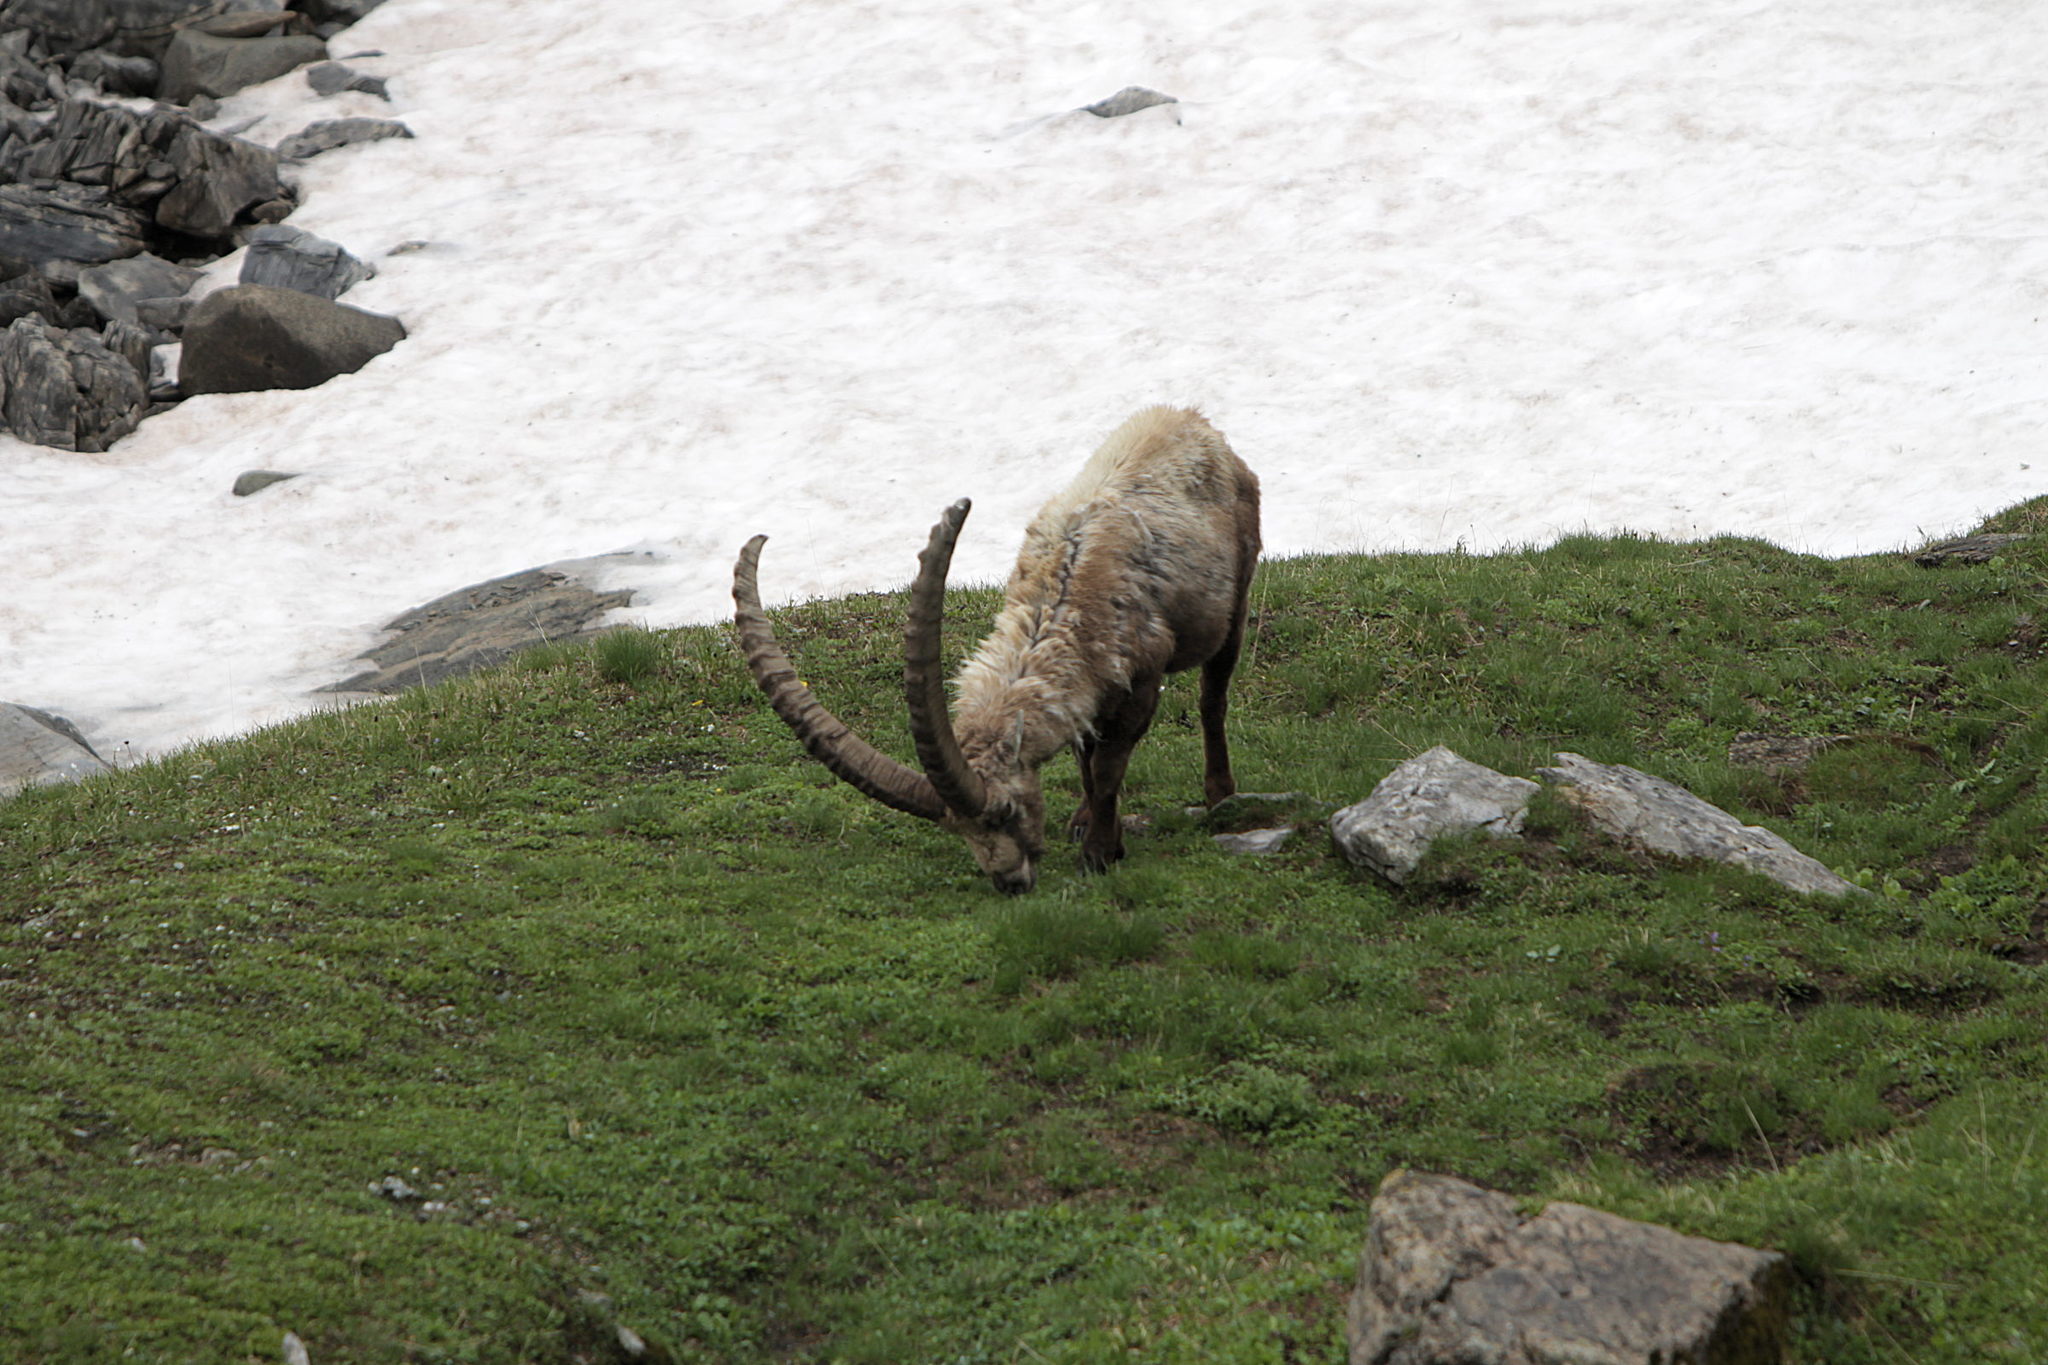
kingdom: Animalia
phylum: Chordata
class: Mammalia
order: Artiodactyla
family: Bovidae
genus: Capra
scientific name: Capra ibex
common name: Alpine ibex
